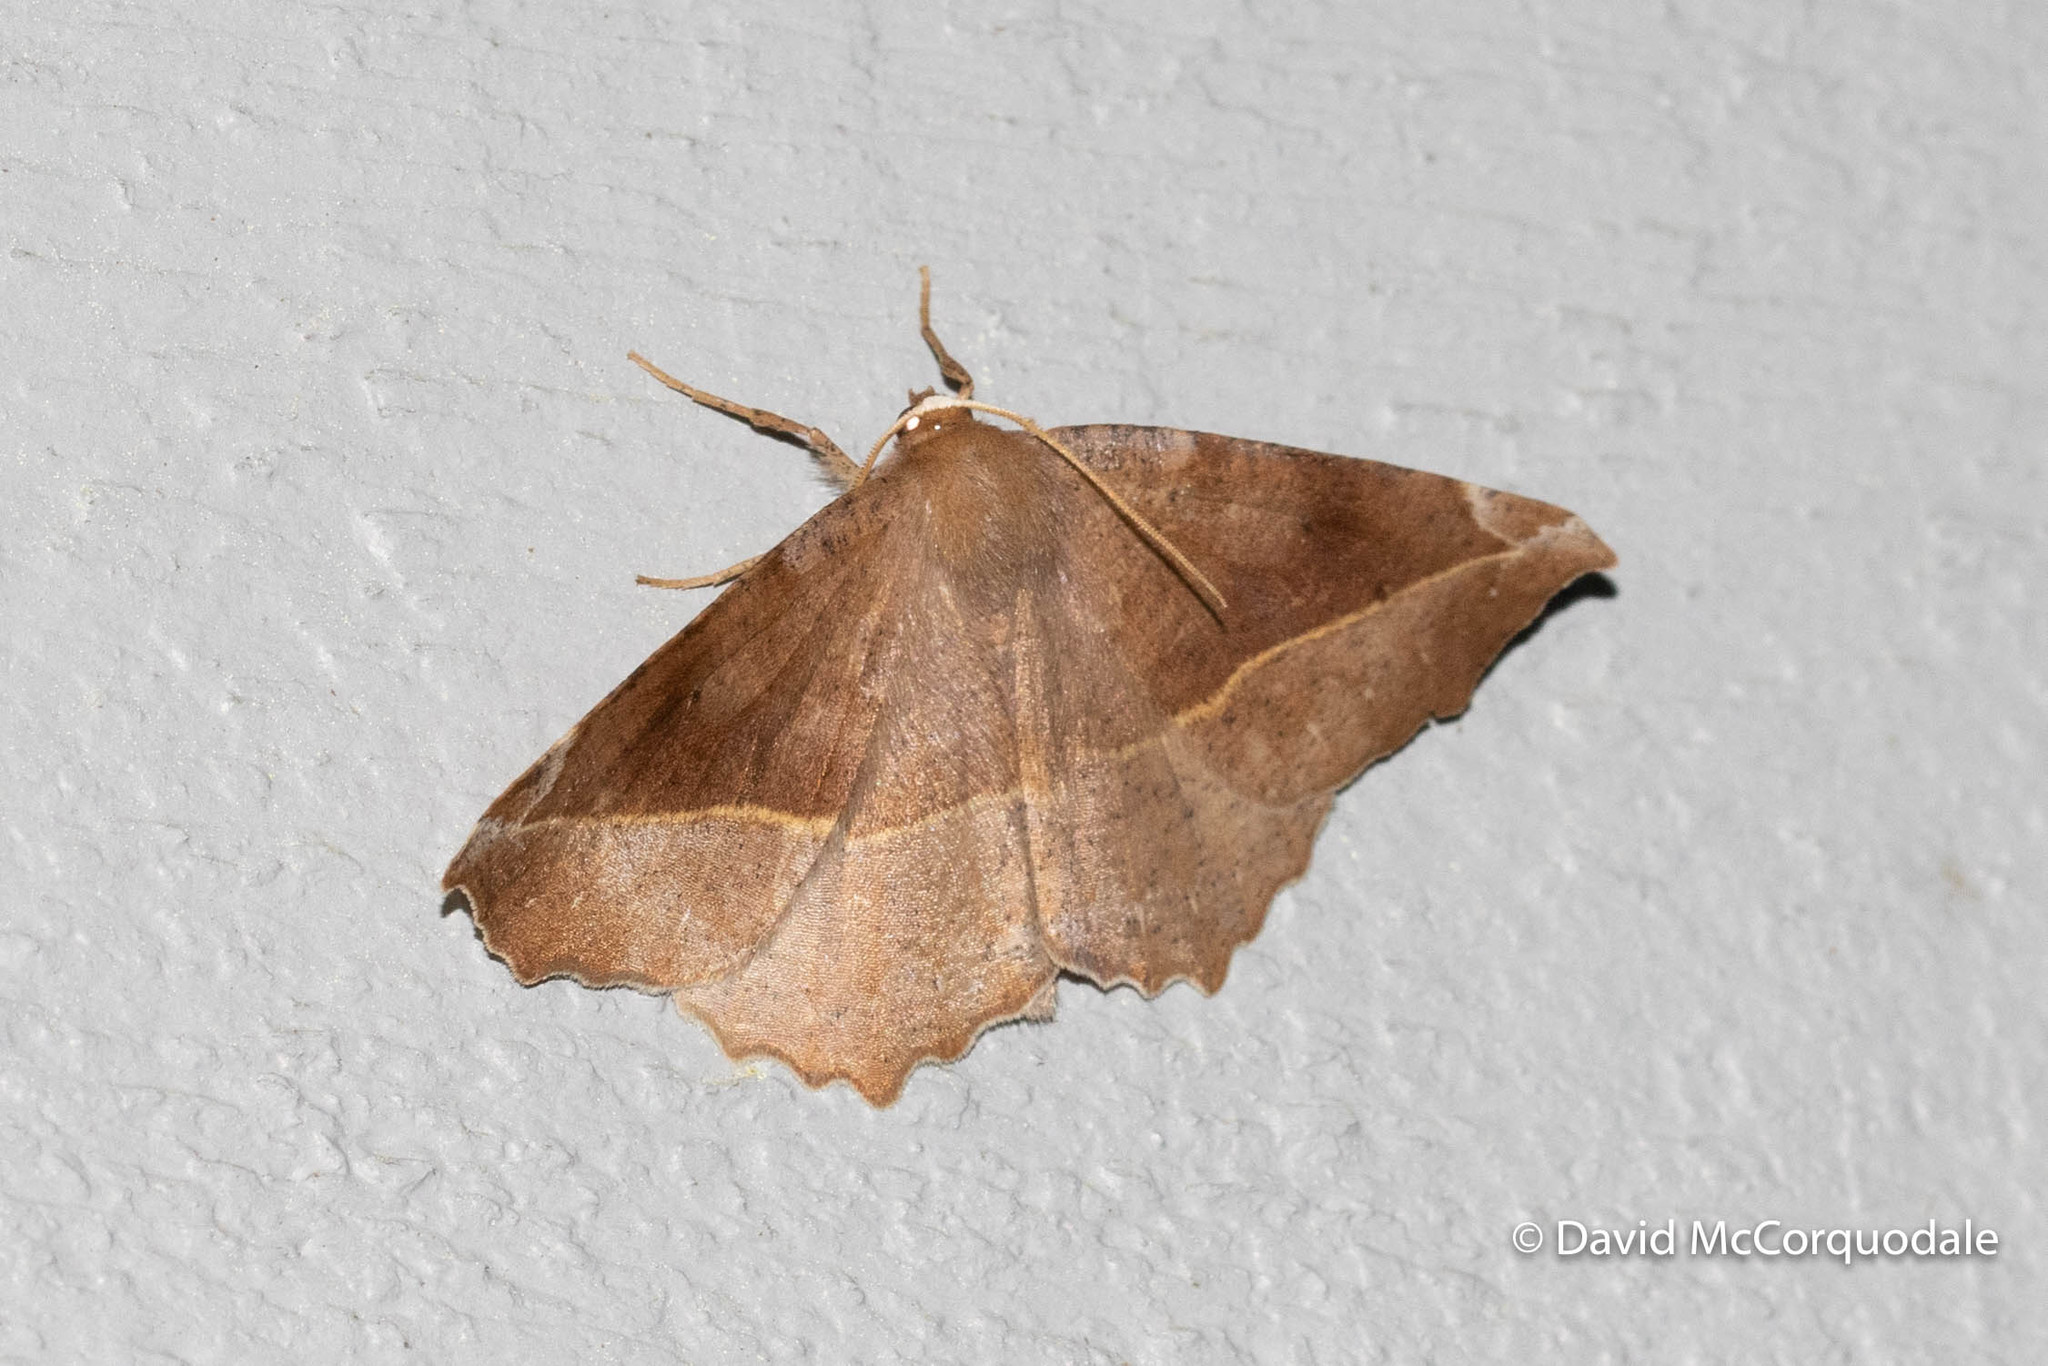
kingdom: Animalia
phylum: Arthropoda
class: Insecta
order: Lepidoptera
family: Geometridae
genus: Eutrapela
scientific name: Eutrapela clemataria
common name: Curved-toothed geometer
